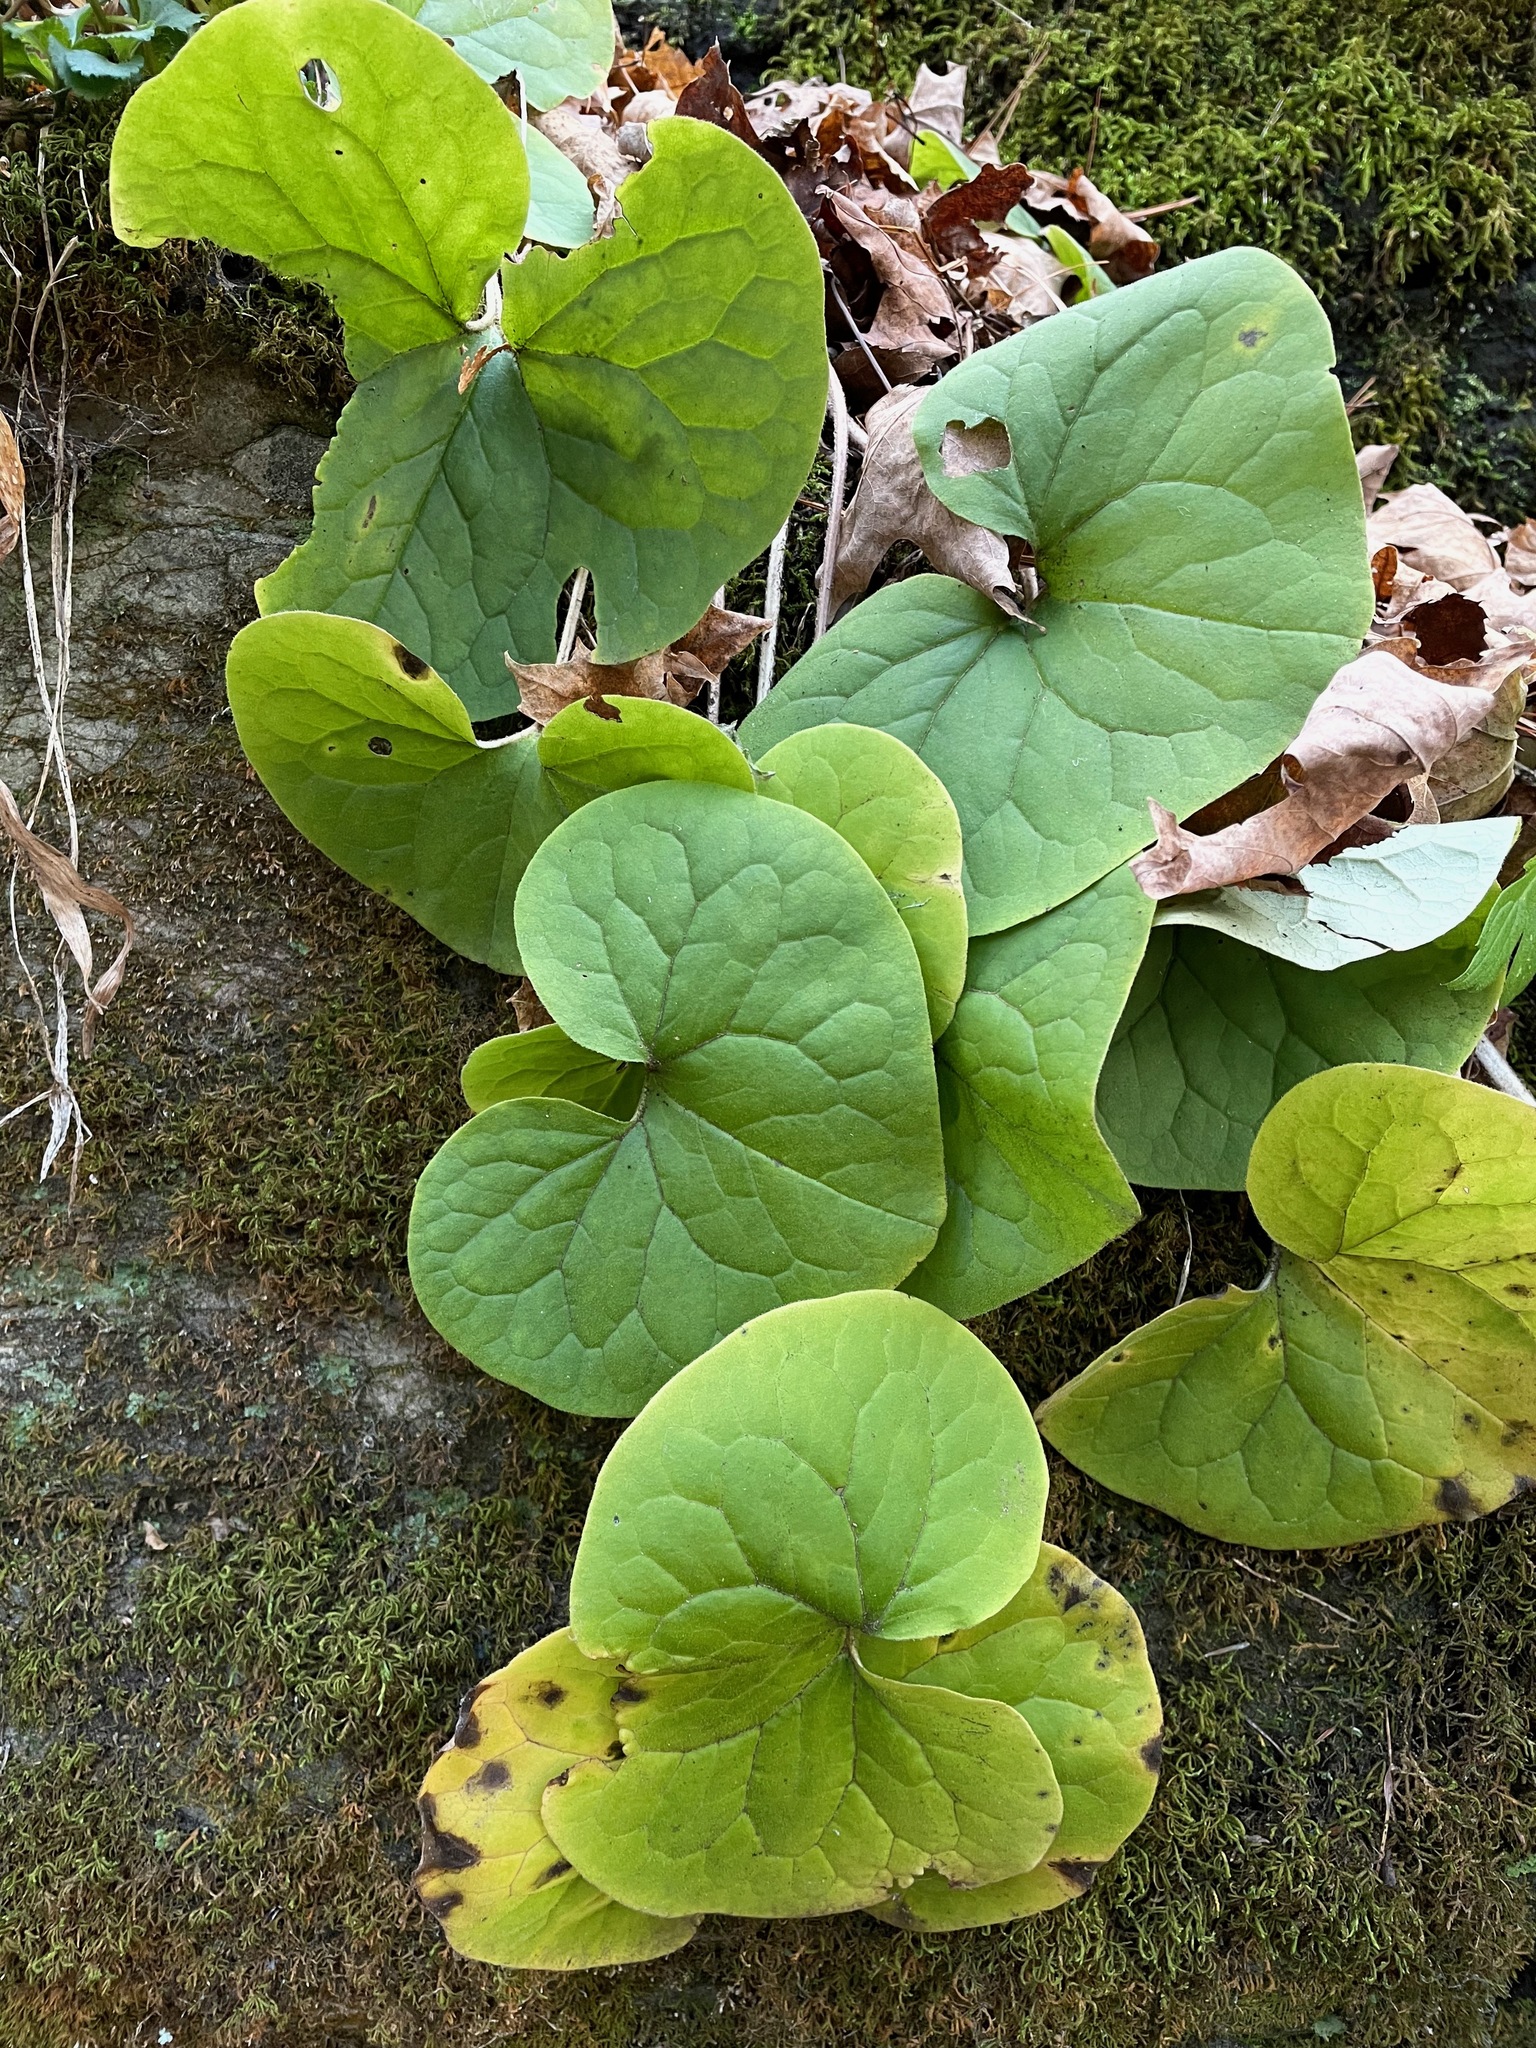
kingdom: Plantae
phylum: Tracheophyta
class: Magnoliopsida
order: Piperales
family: Aristolochiaceae
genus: Asarum
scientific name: Asarum canadense
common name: Wild ginger
